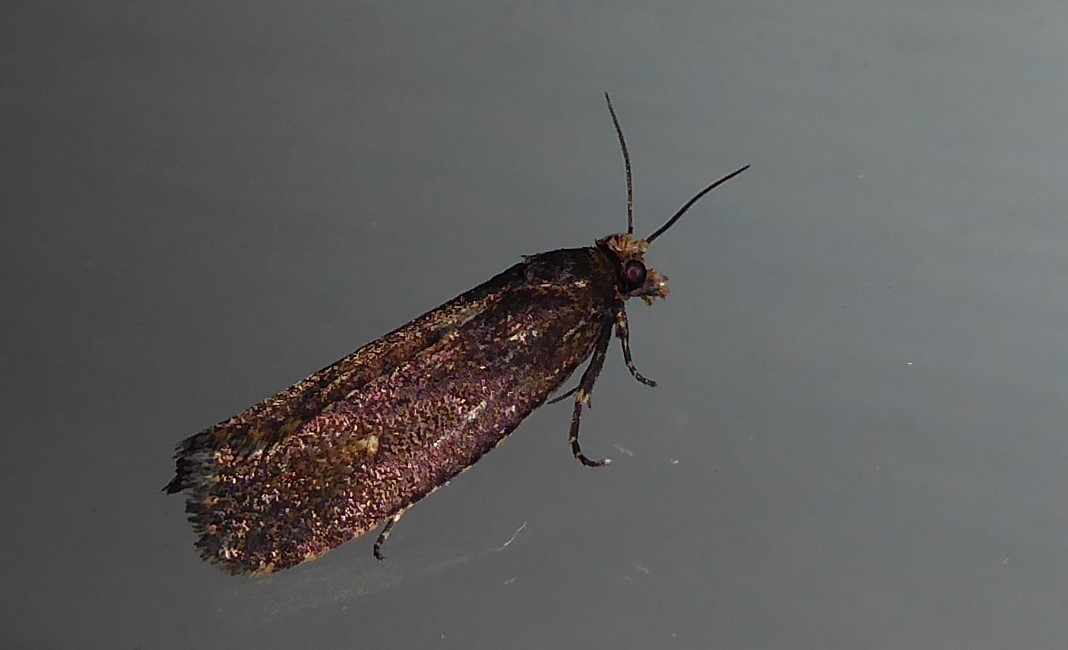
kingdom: Animalia
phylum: Arthropoda
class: Insecta
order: Lepidoptera
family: Tortricidae
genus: Cryptaspasma
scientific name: Cryptaspasma querula
